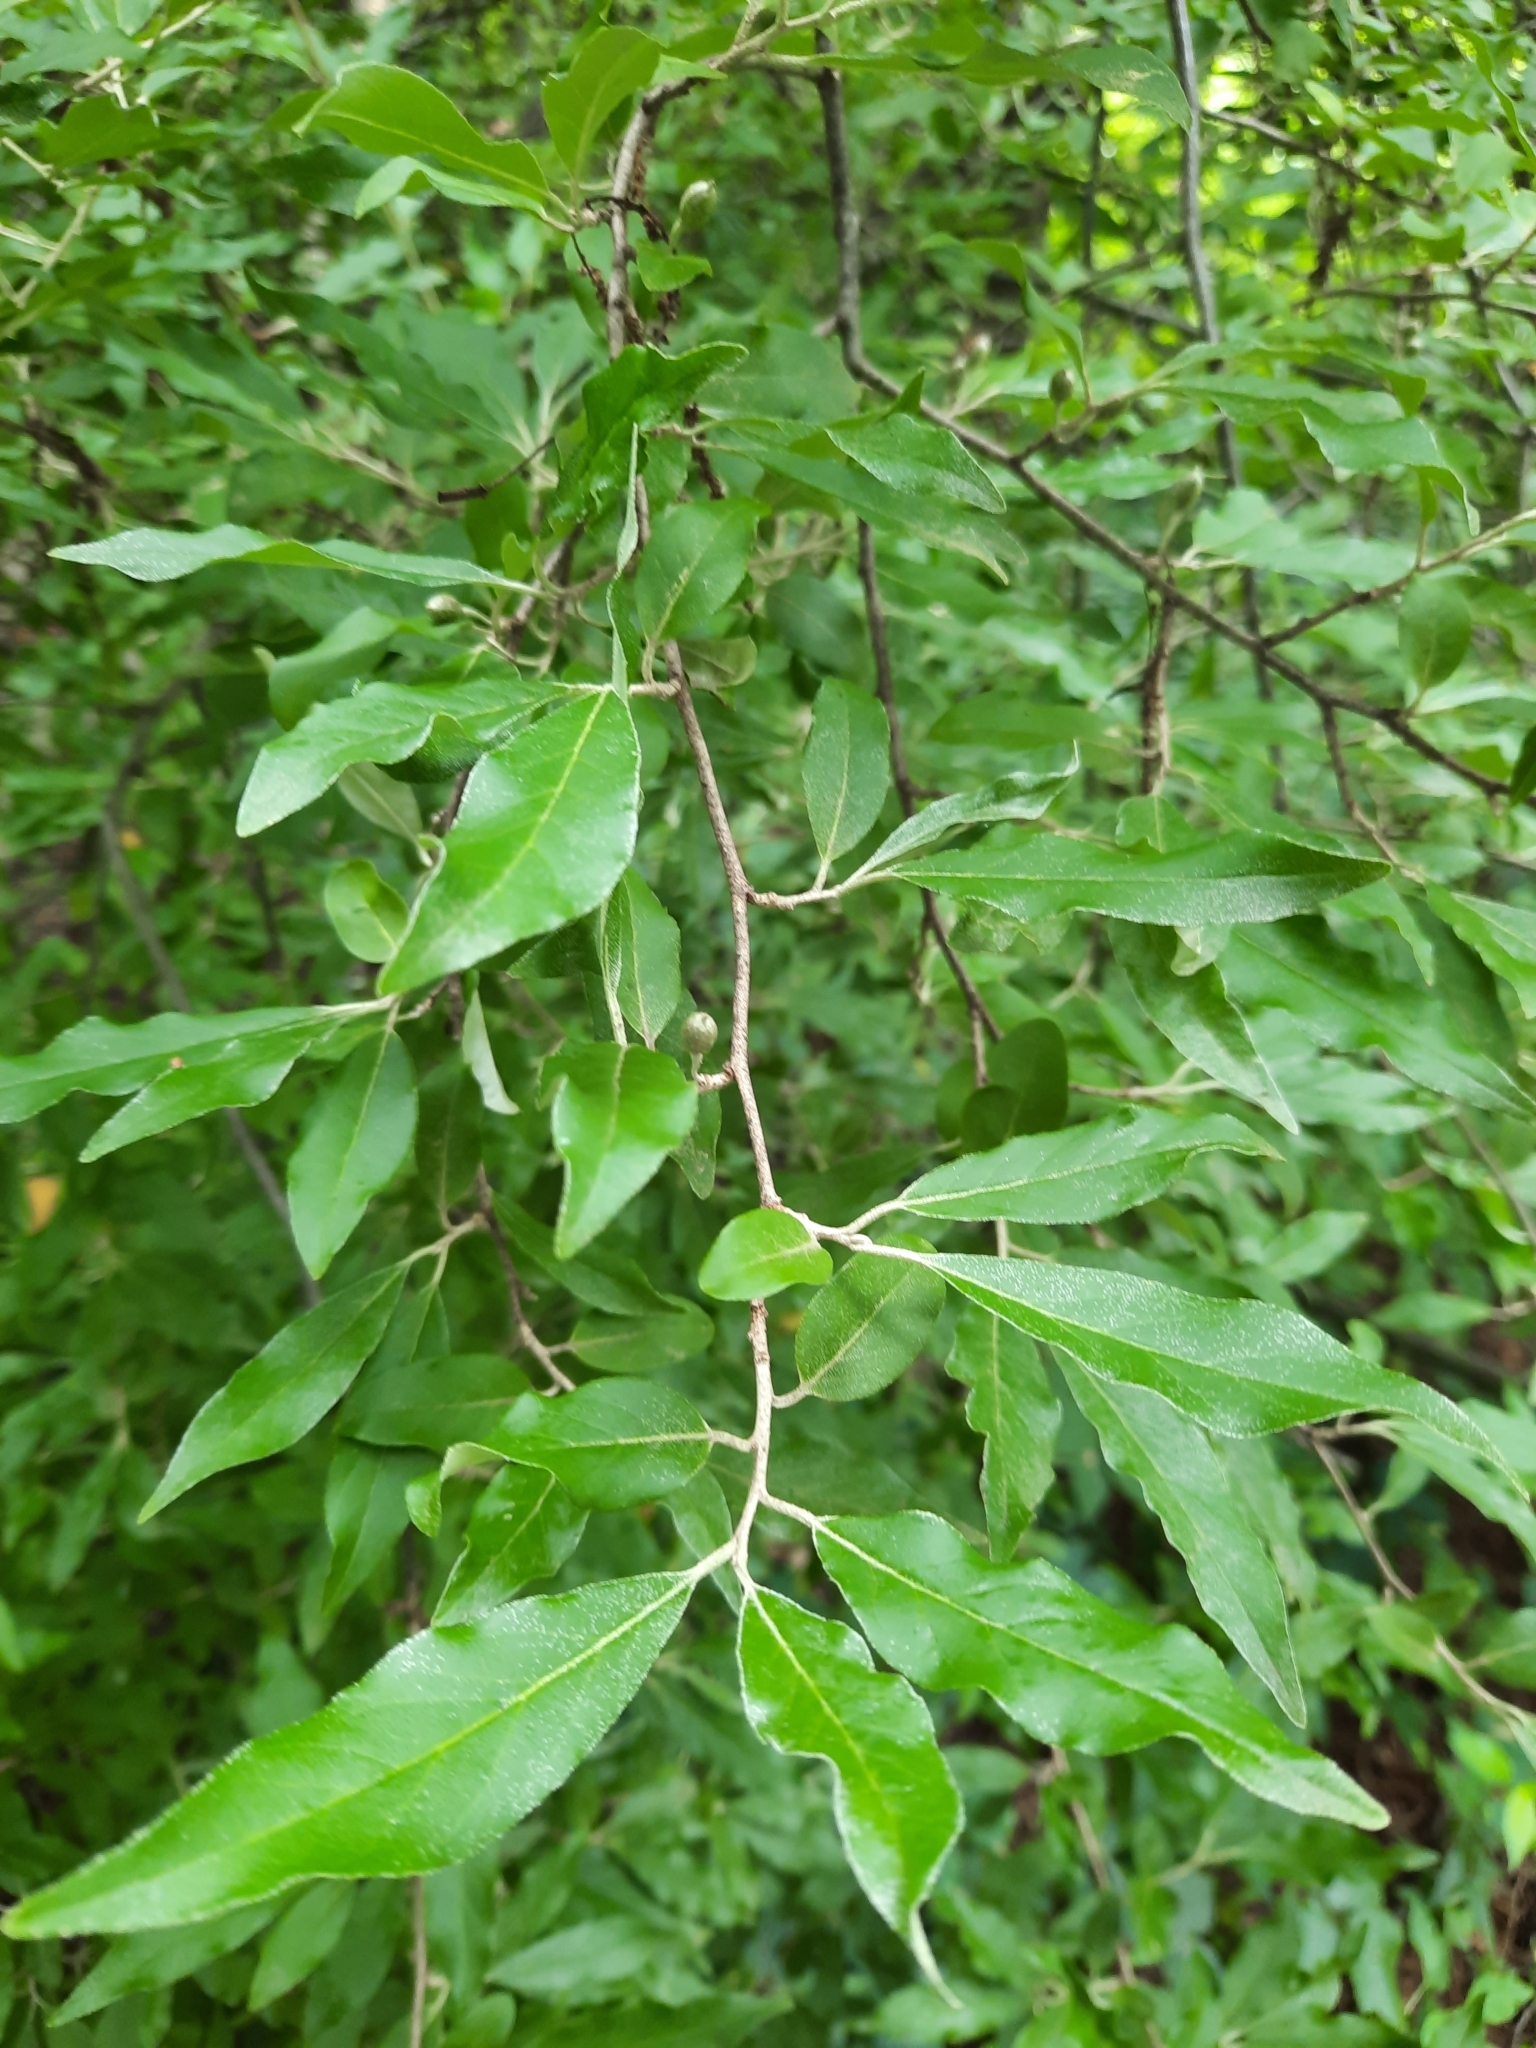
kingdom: Plantae
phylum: Tracheophyta
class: Magnoliopsida
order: Rosales
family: Elaeagnaceae
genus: Elaeagnus
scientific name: Elaeagnus umbellata
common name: Autumn olive
